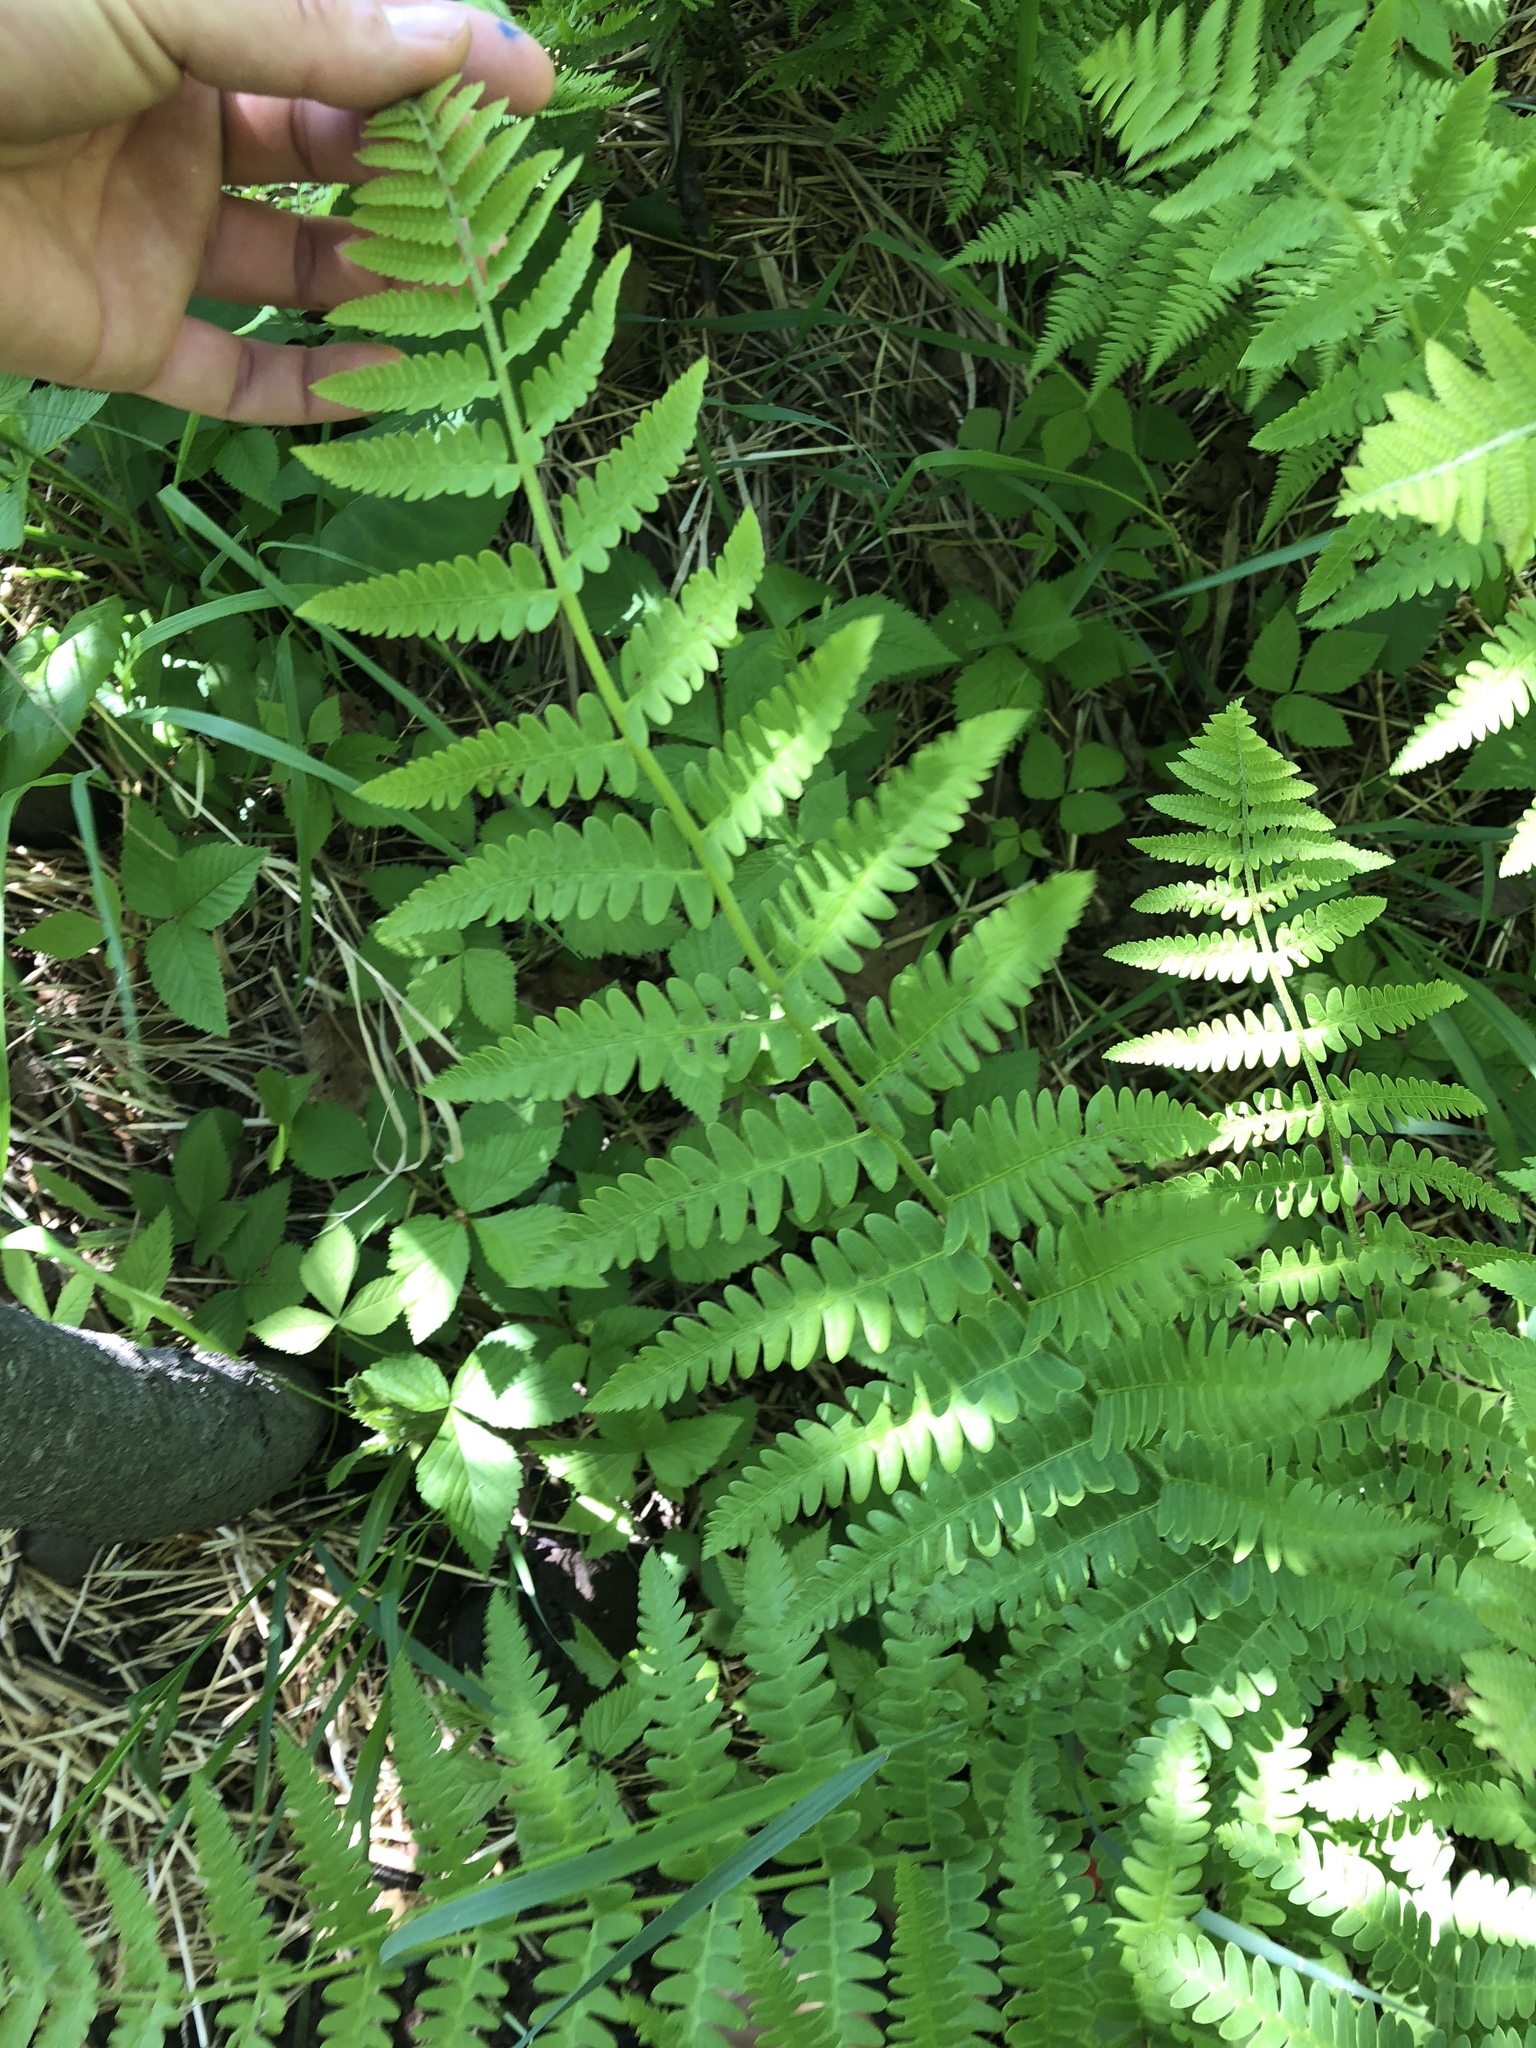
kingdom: Plantae
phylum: Tracheophyta
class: Polypodiopsida
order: Osmundales
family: Osmundaceae
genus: Claytosmunda
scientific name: Claytosmunda claytoniana
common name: Clayton's fern
